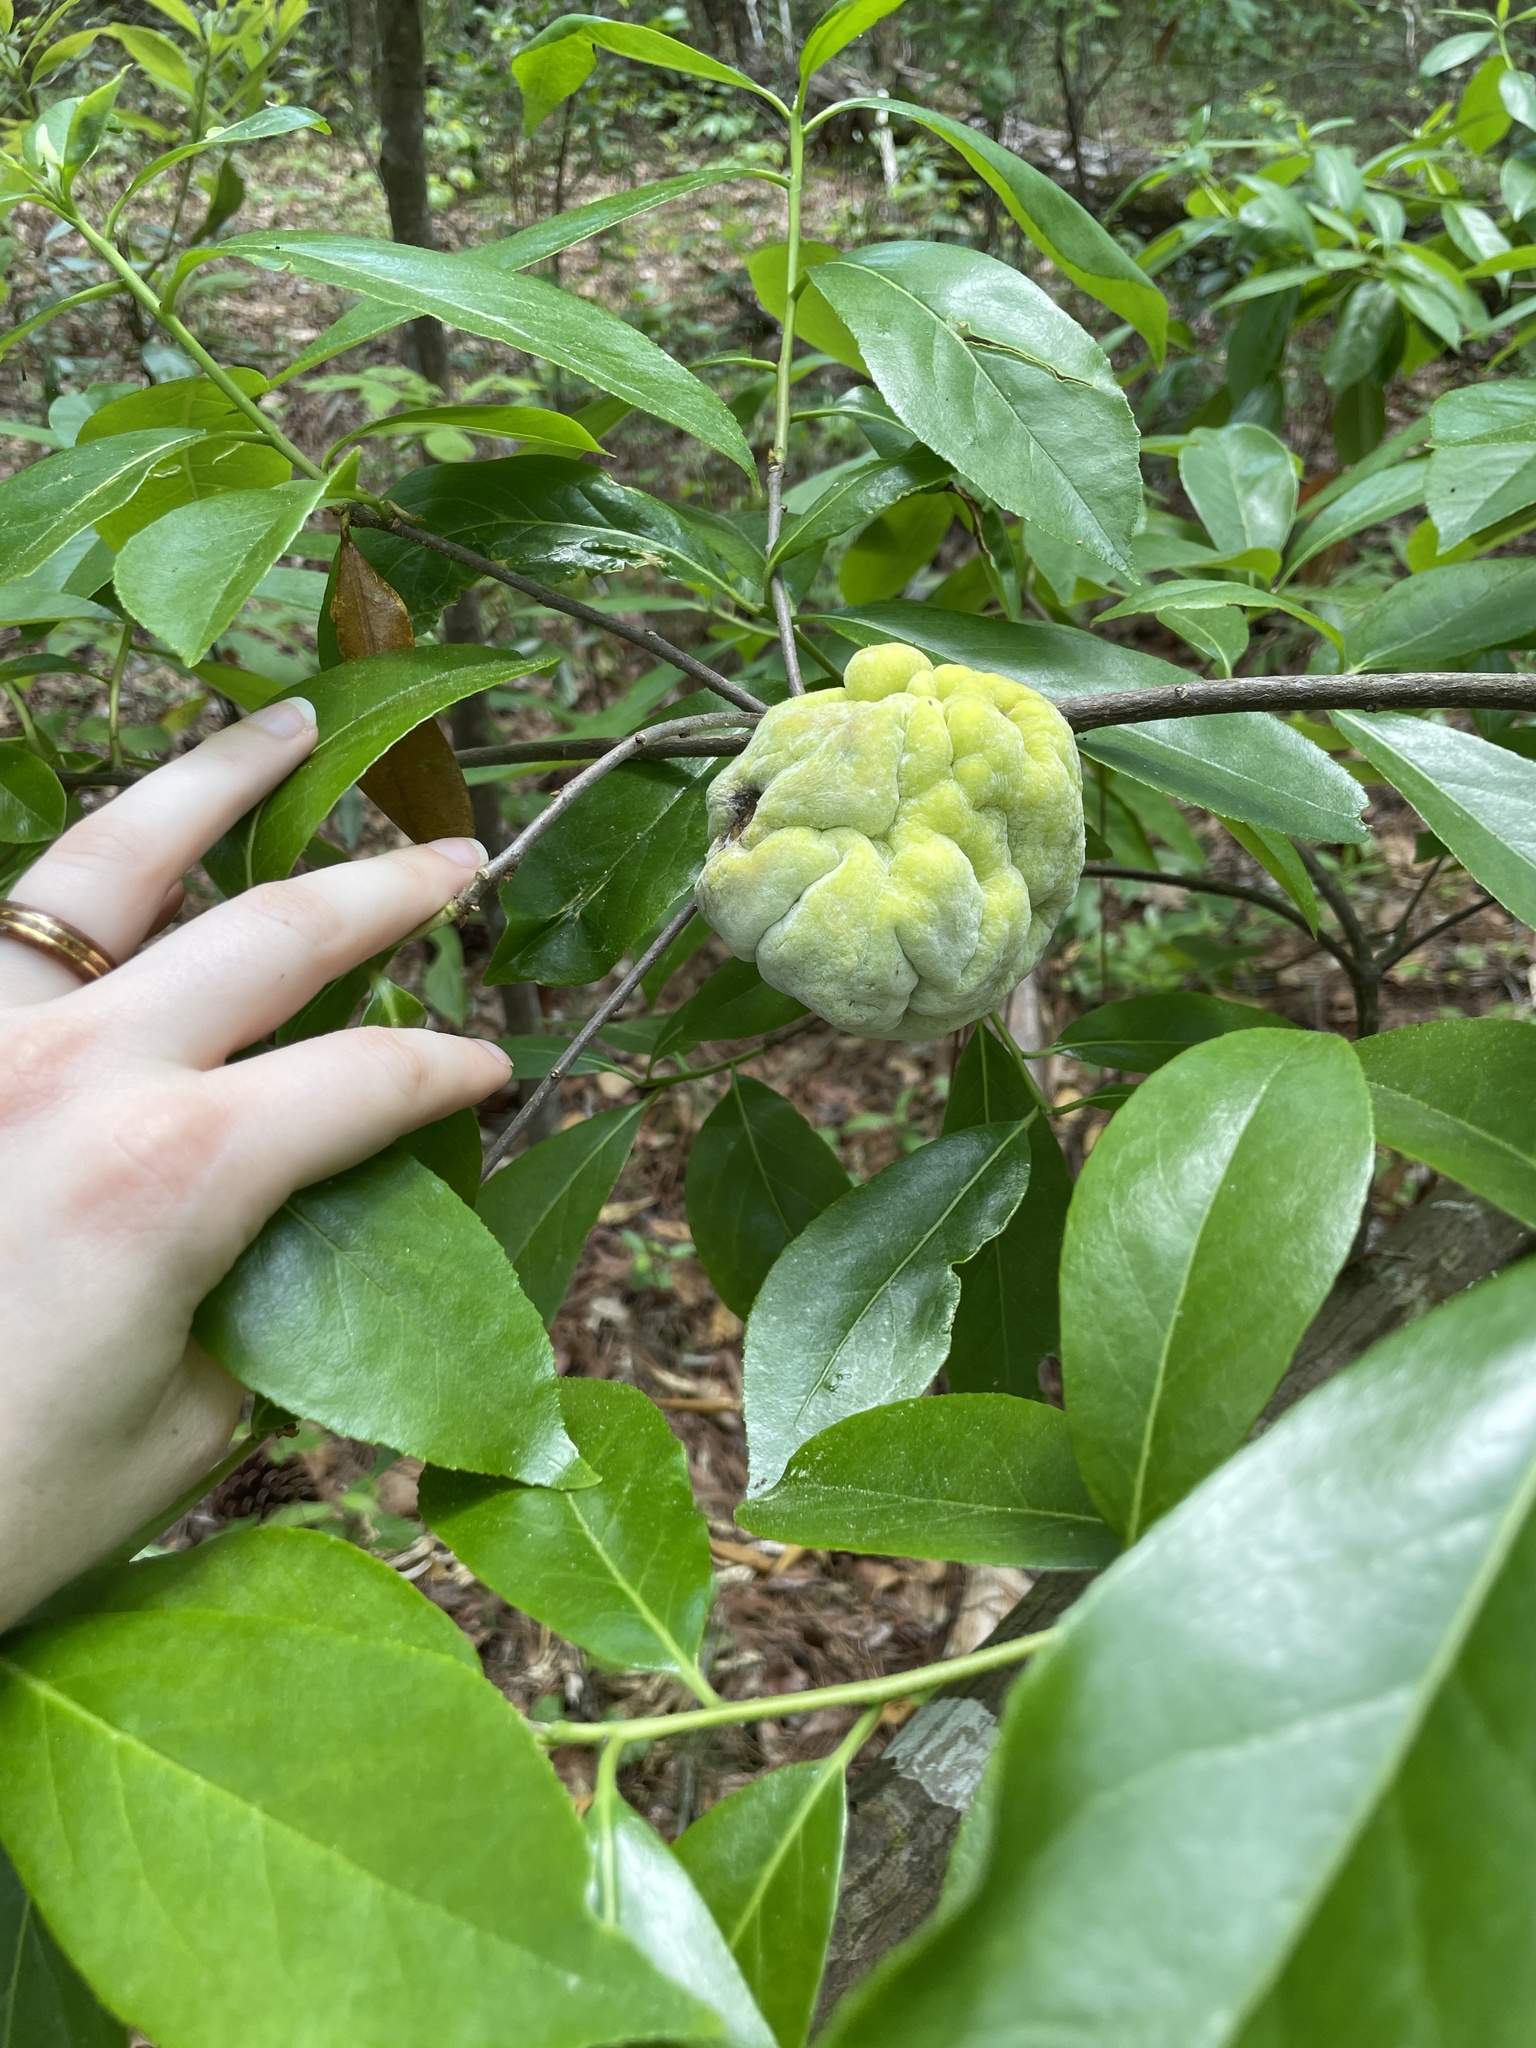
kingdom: Fungi
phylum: Basidiomycota
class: Exobasidiomycetes
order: Exobasidiales
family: Exobasidiaceae
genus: Exobasidium
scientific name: Exobasidium symploci
